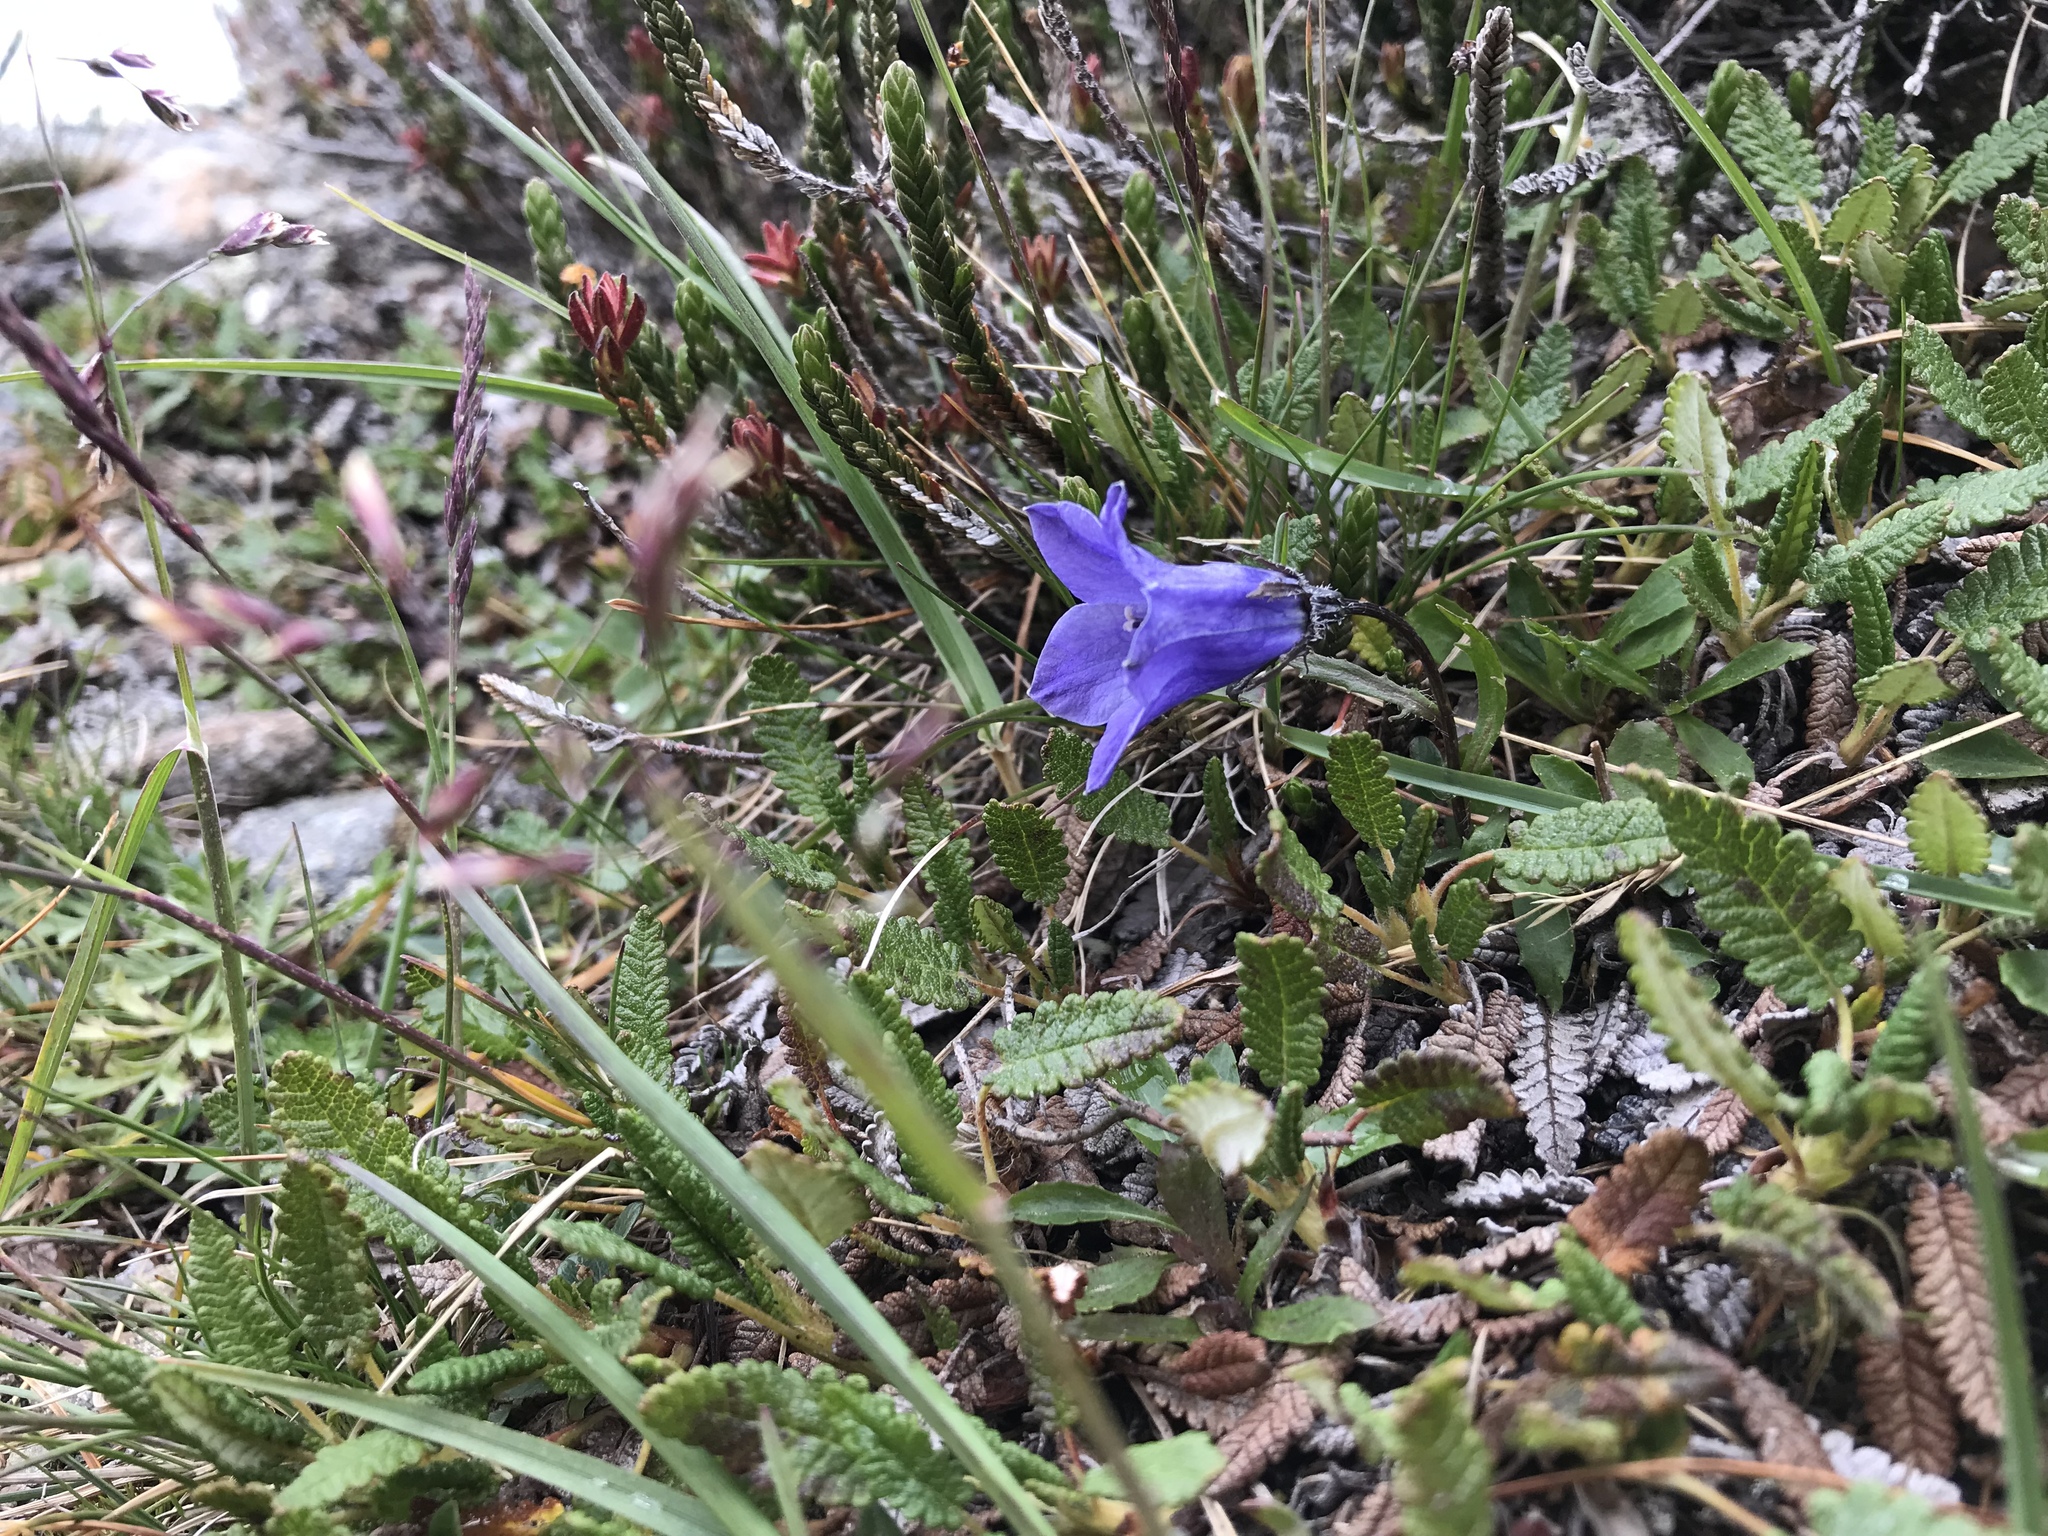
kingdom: Plantae
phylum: Tracheophyta
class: Magnoliopsida
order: Asterales
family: Campanulaceae
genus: Campanula
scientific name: Campanula lasiocarpa
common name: Mountain harebell
